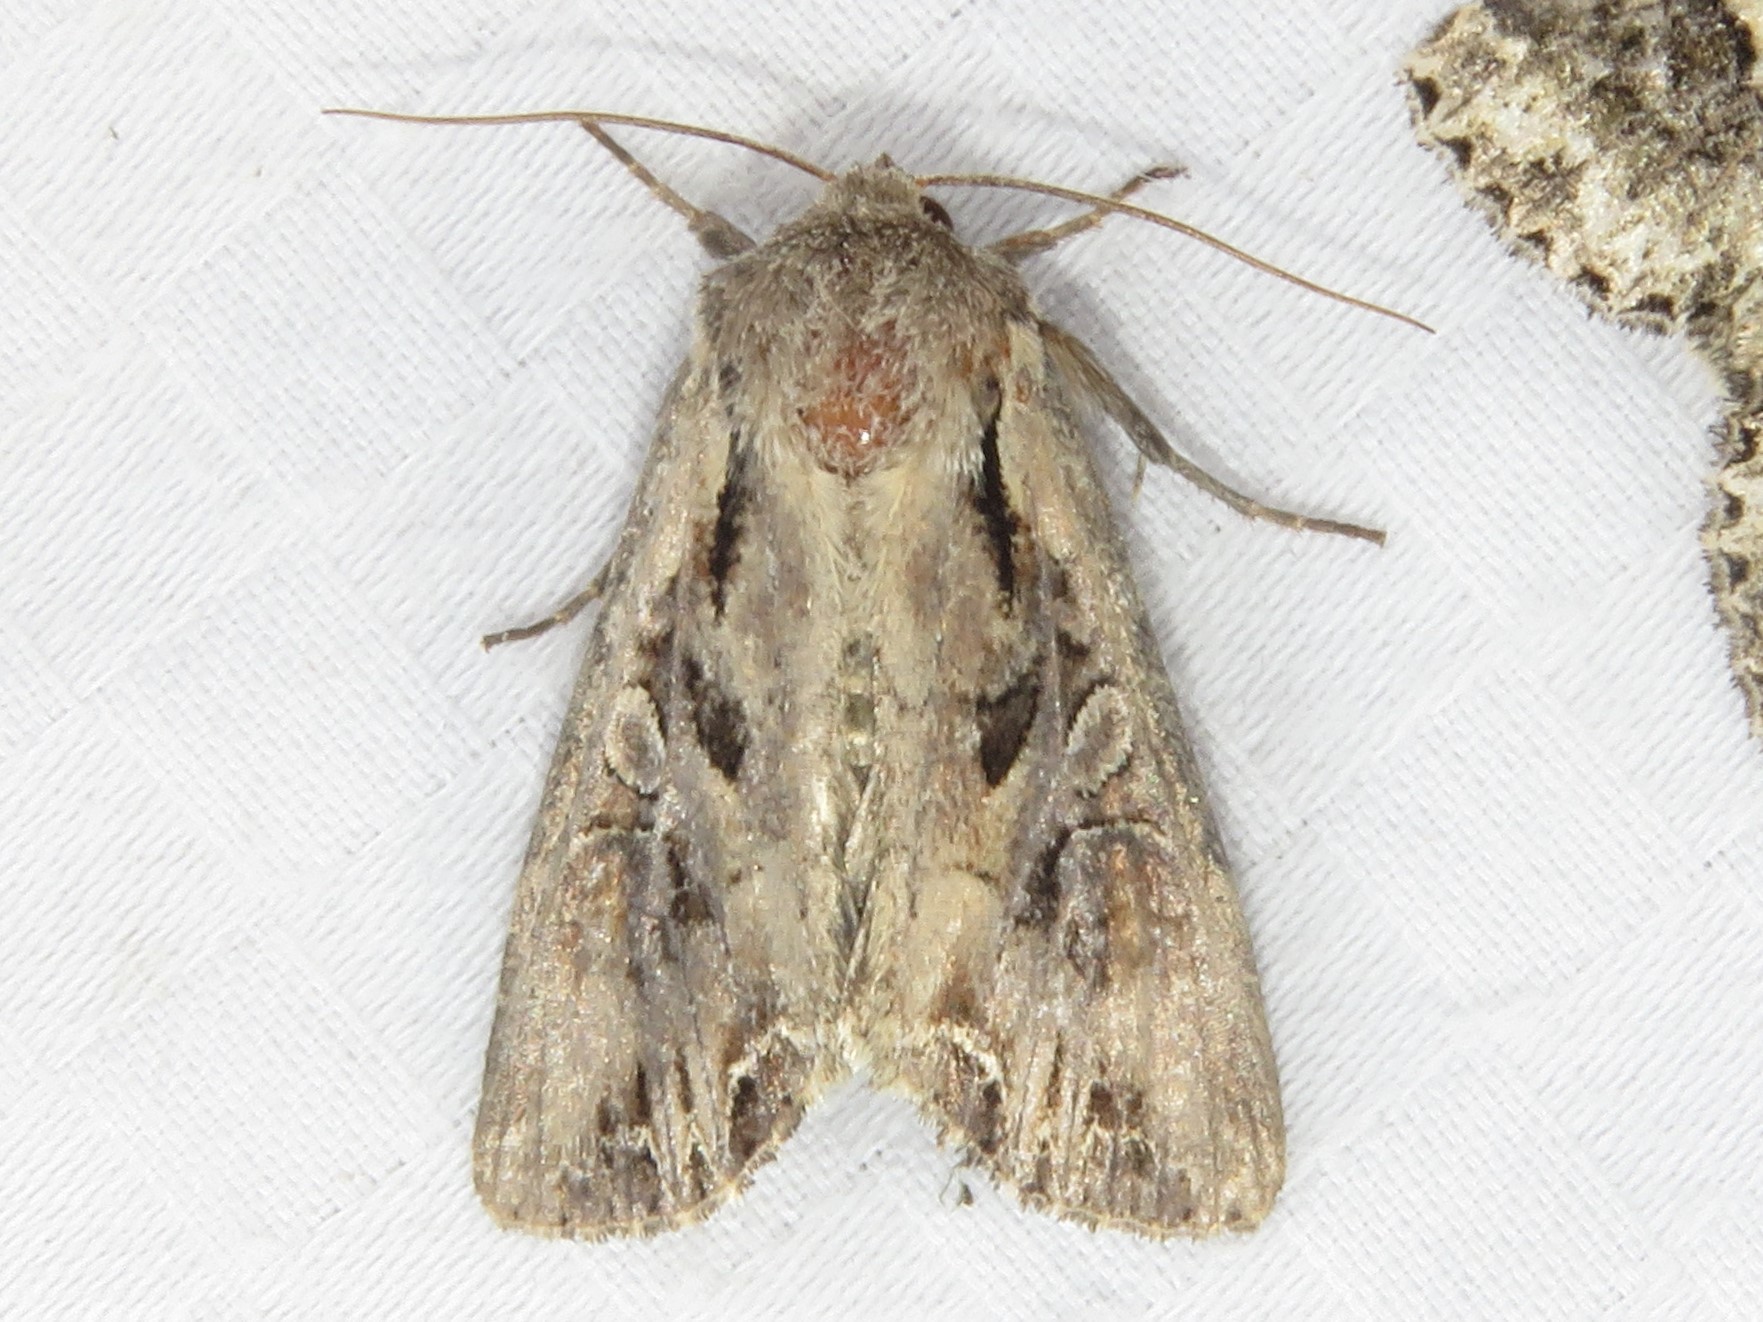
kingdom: Animalia
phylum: Arthropoda
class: Insecta
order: Lepidoptera
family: Noctuidae
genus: Lacanobia
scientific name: Lacanobia atlantica
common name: Atlantic arches moth
